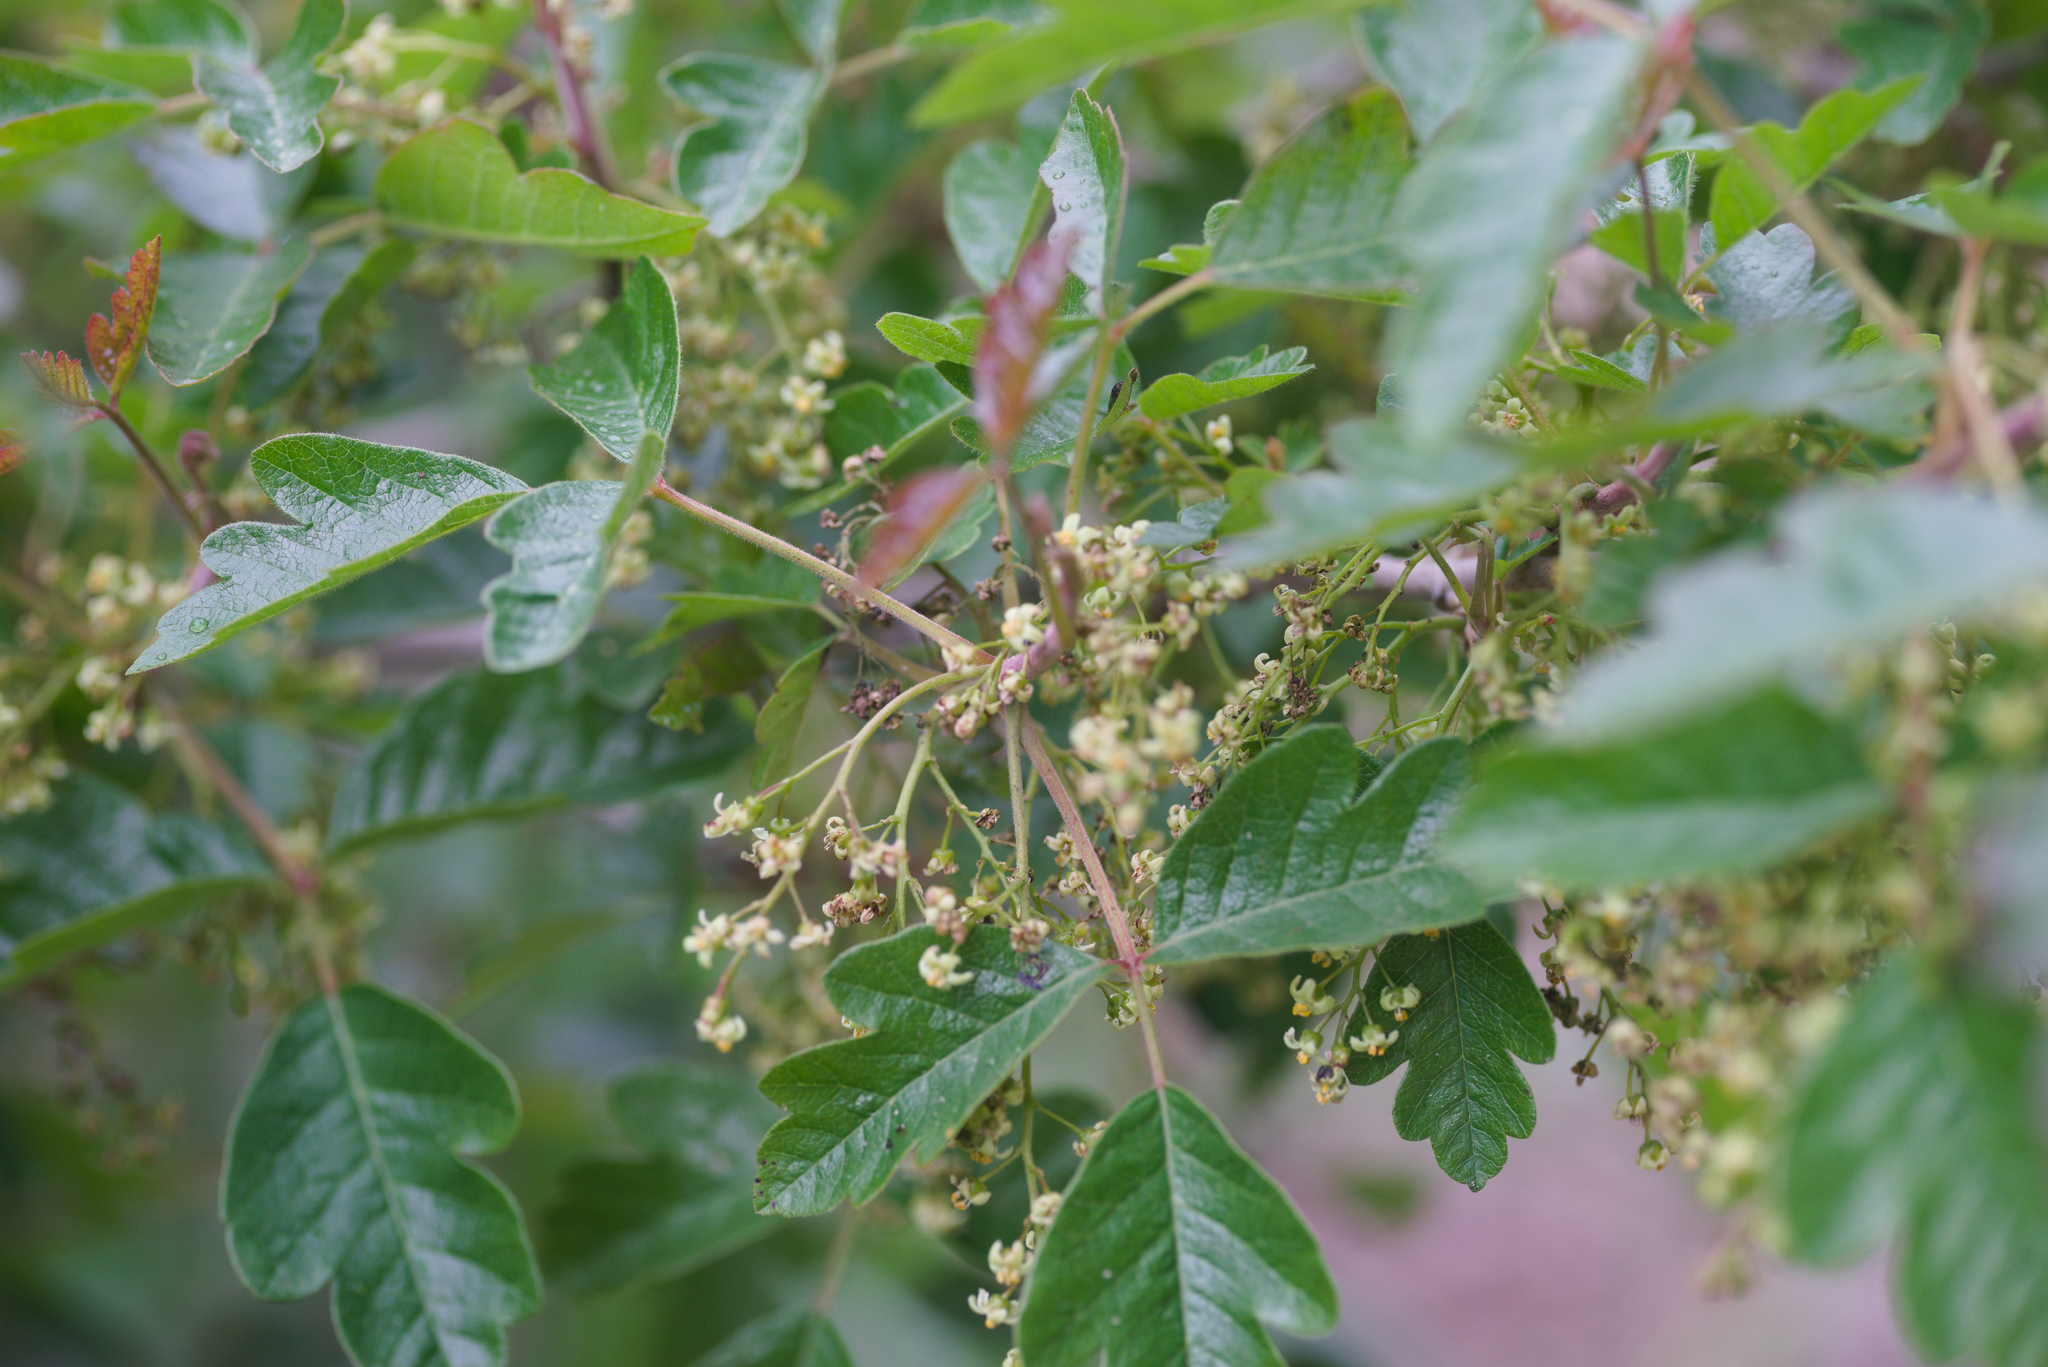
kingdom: Plantae
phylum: Tracheophyta
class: Magnoliopsida
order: Sapindales
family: Anacardiaceae
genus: Toxicodendron
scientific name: Toxicodendron diversilobum
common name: Pacific poison-oak
